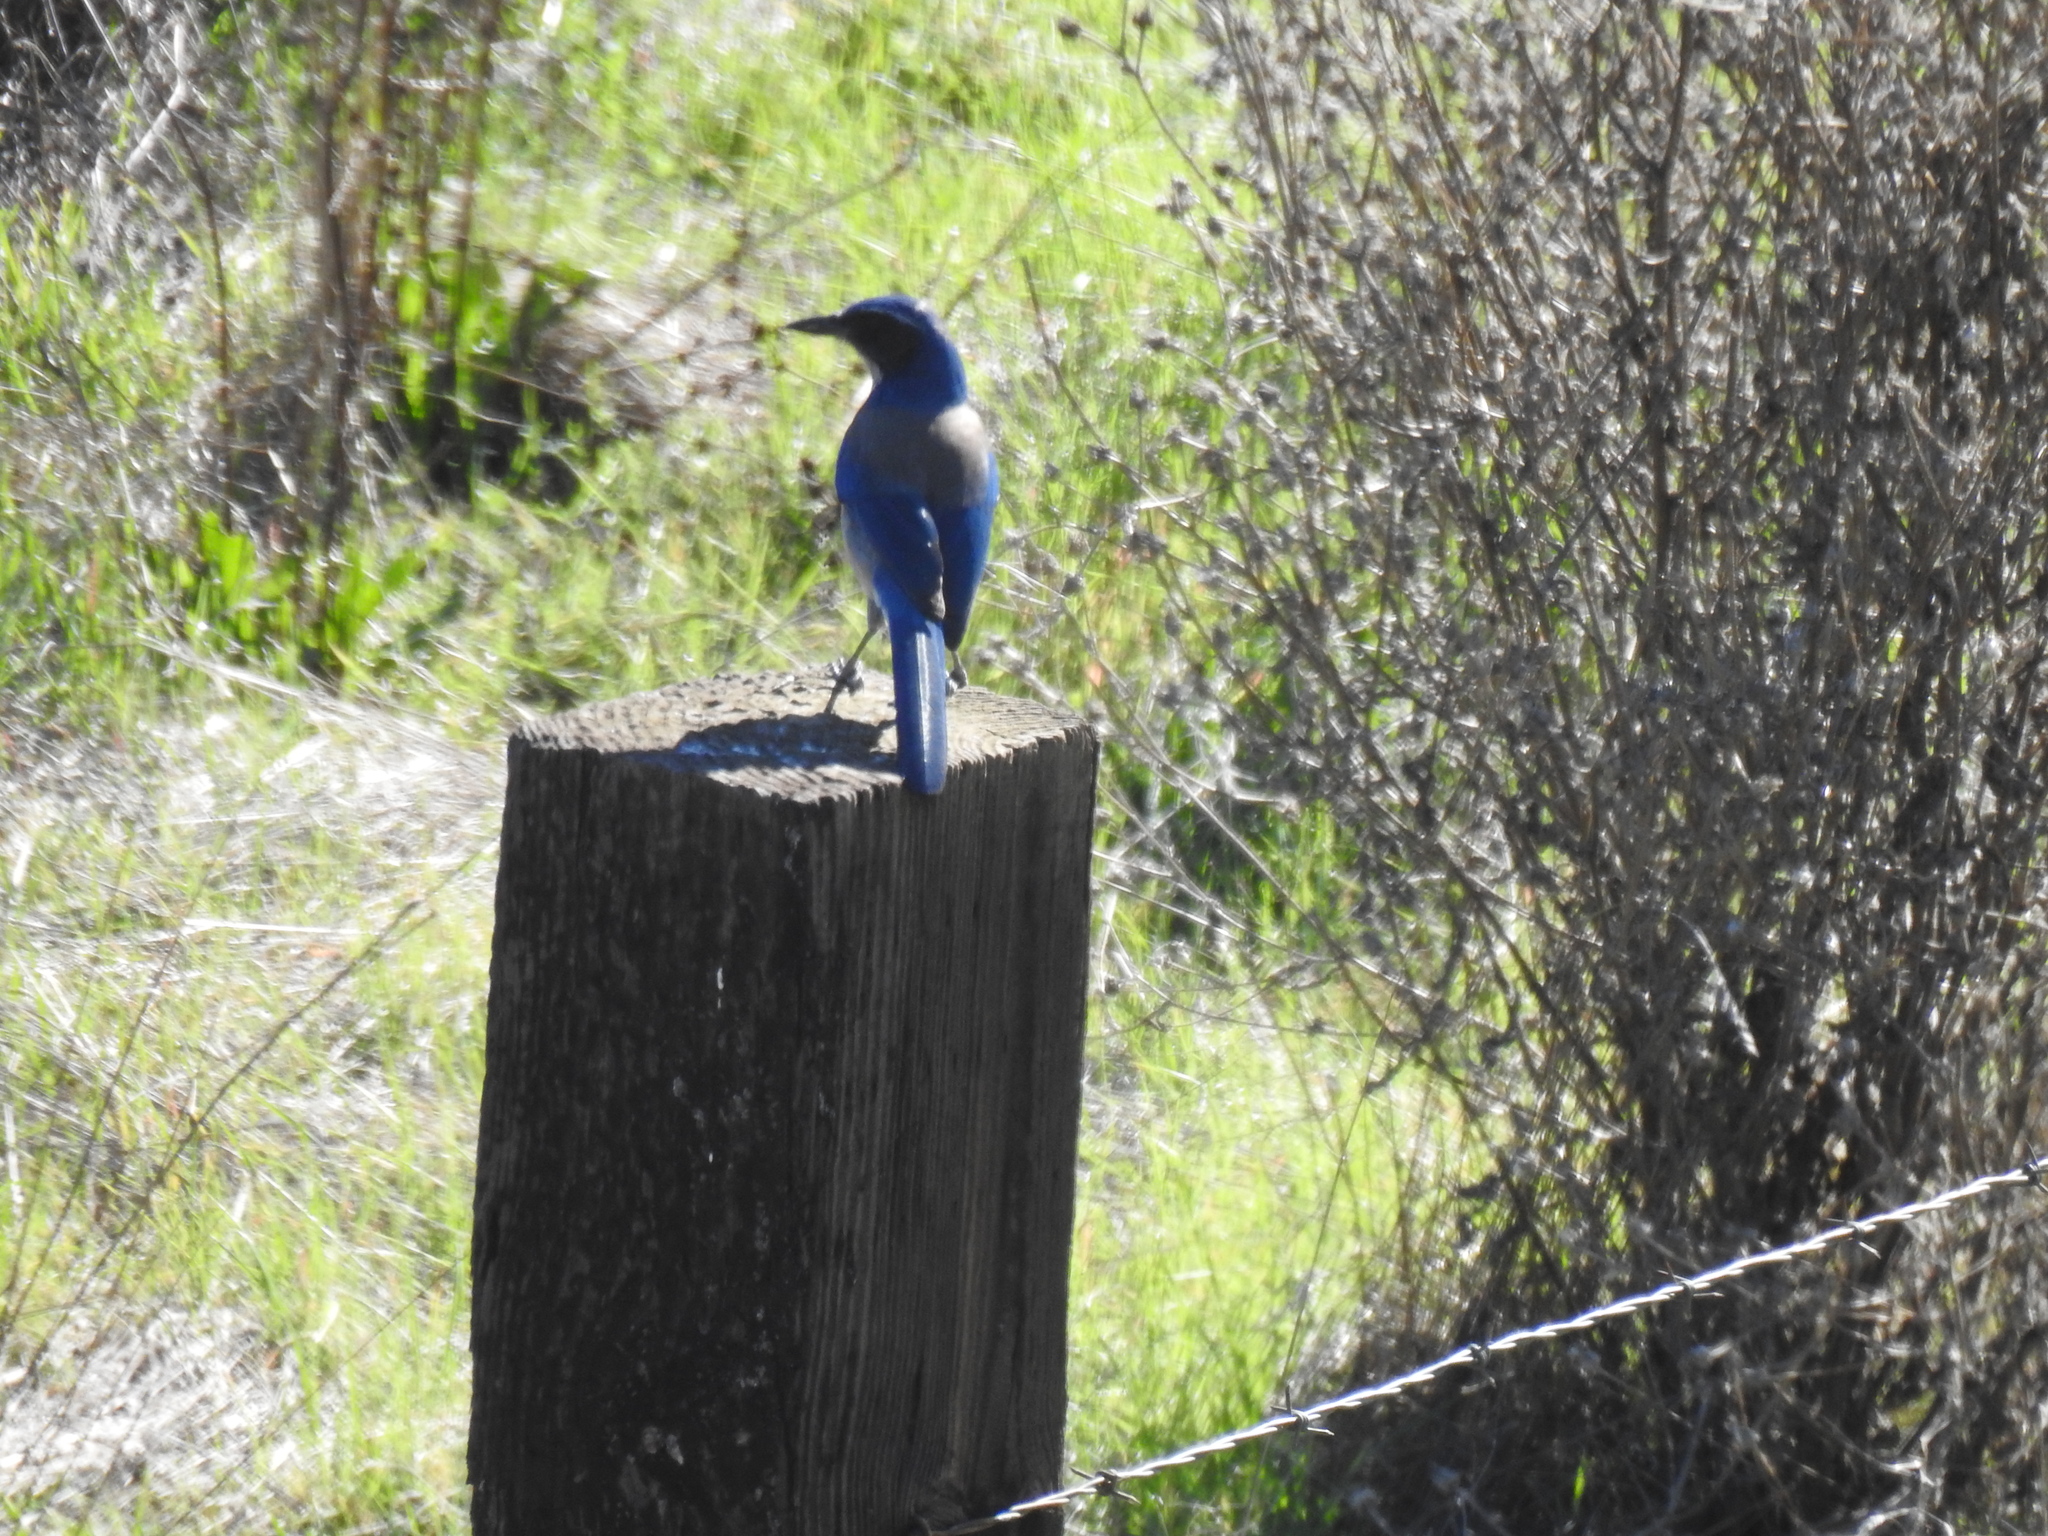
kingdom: Animalia
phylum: Chordata
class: Aves
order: Passeriformes
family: Corvidae
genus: Aphelocoma
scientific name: Aphelocoma californica
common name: California scrub-jay
